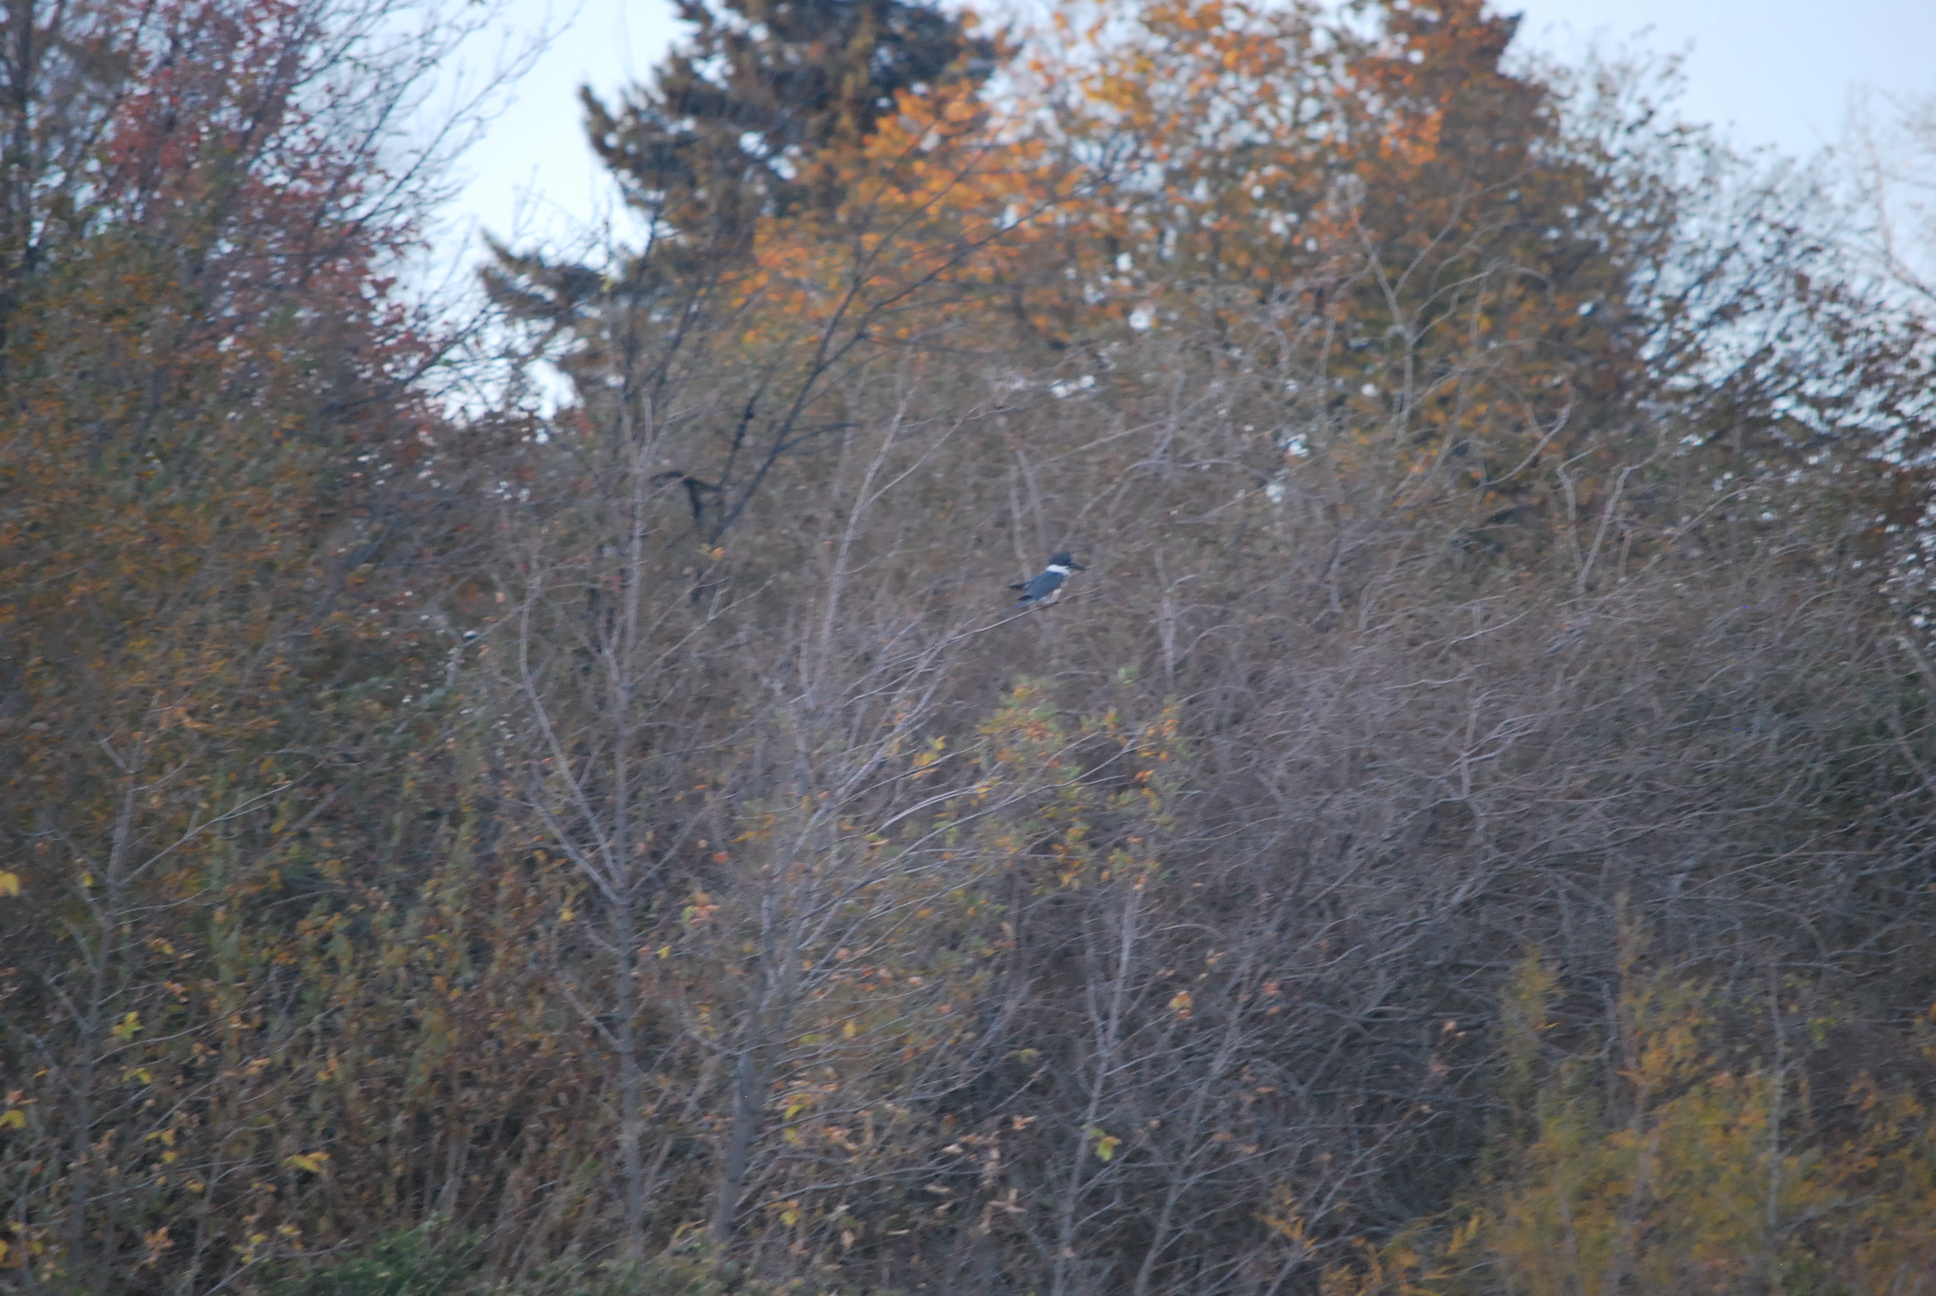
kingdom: Animalia
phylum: Chordata
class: Aves
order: Coraciiformes
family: Alcedinidae
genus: Megaceryle
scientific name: Megaceryle alcyon
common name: Belted kingfisher
